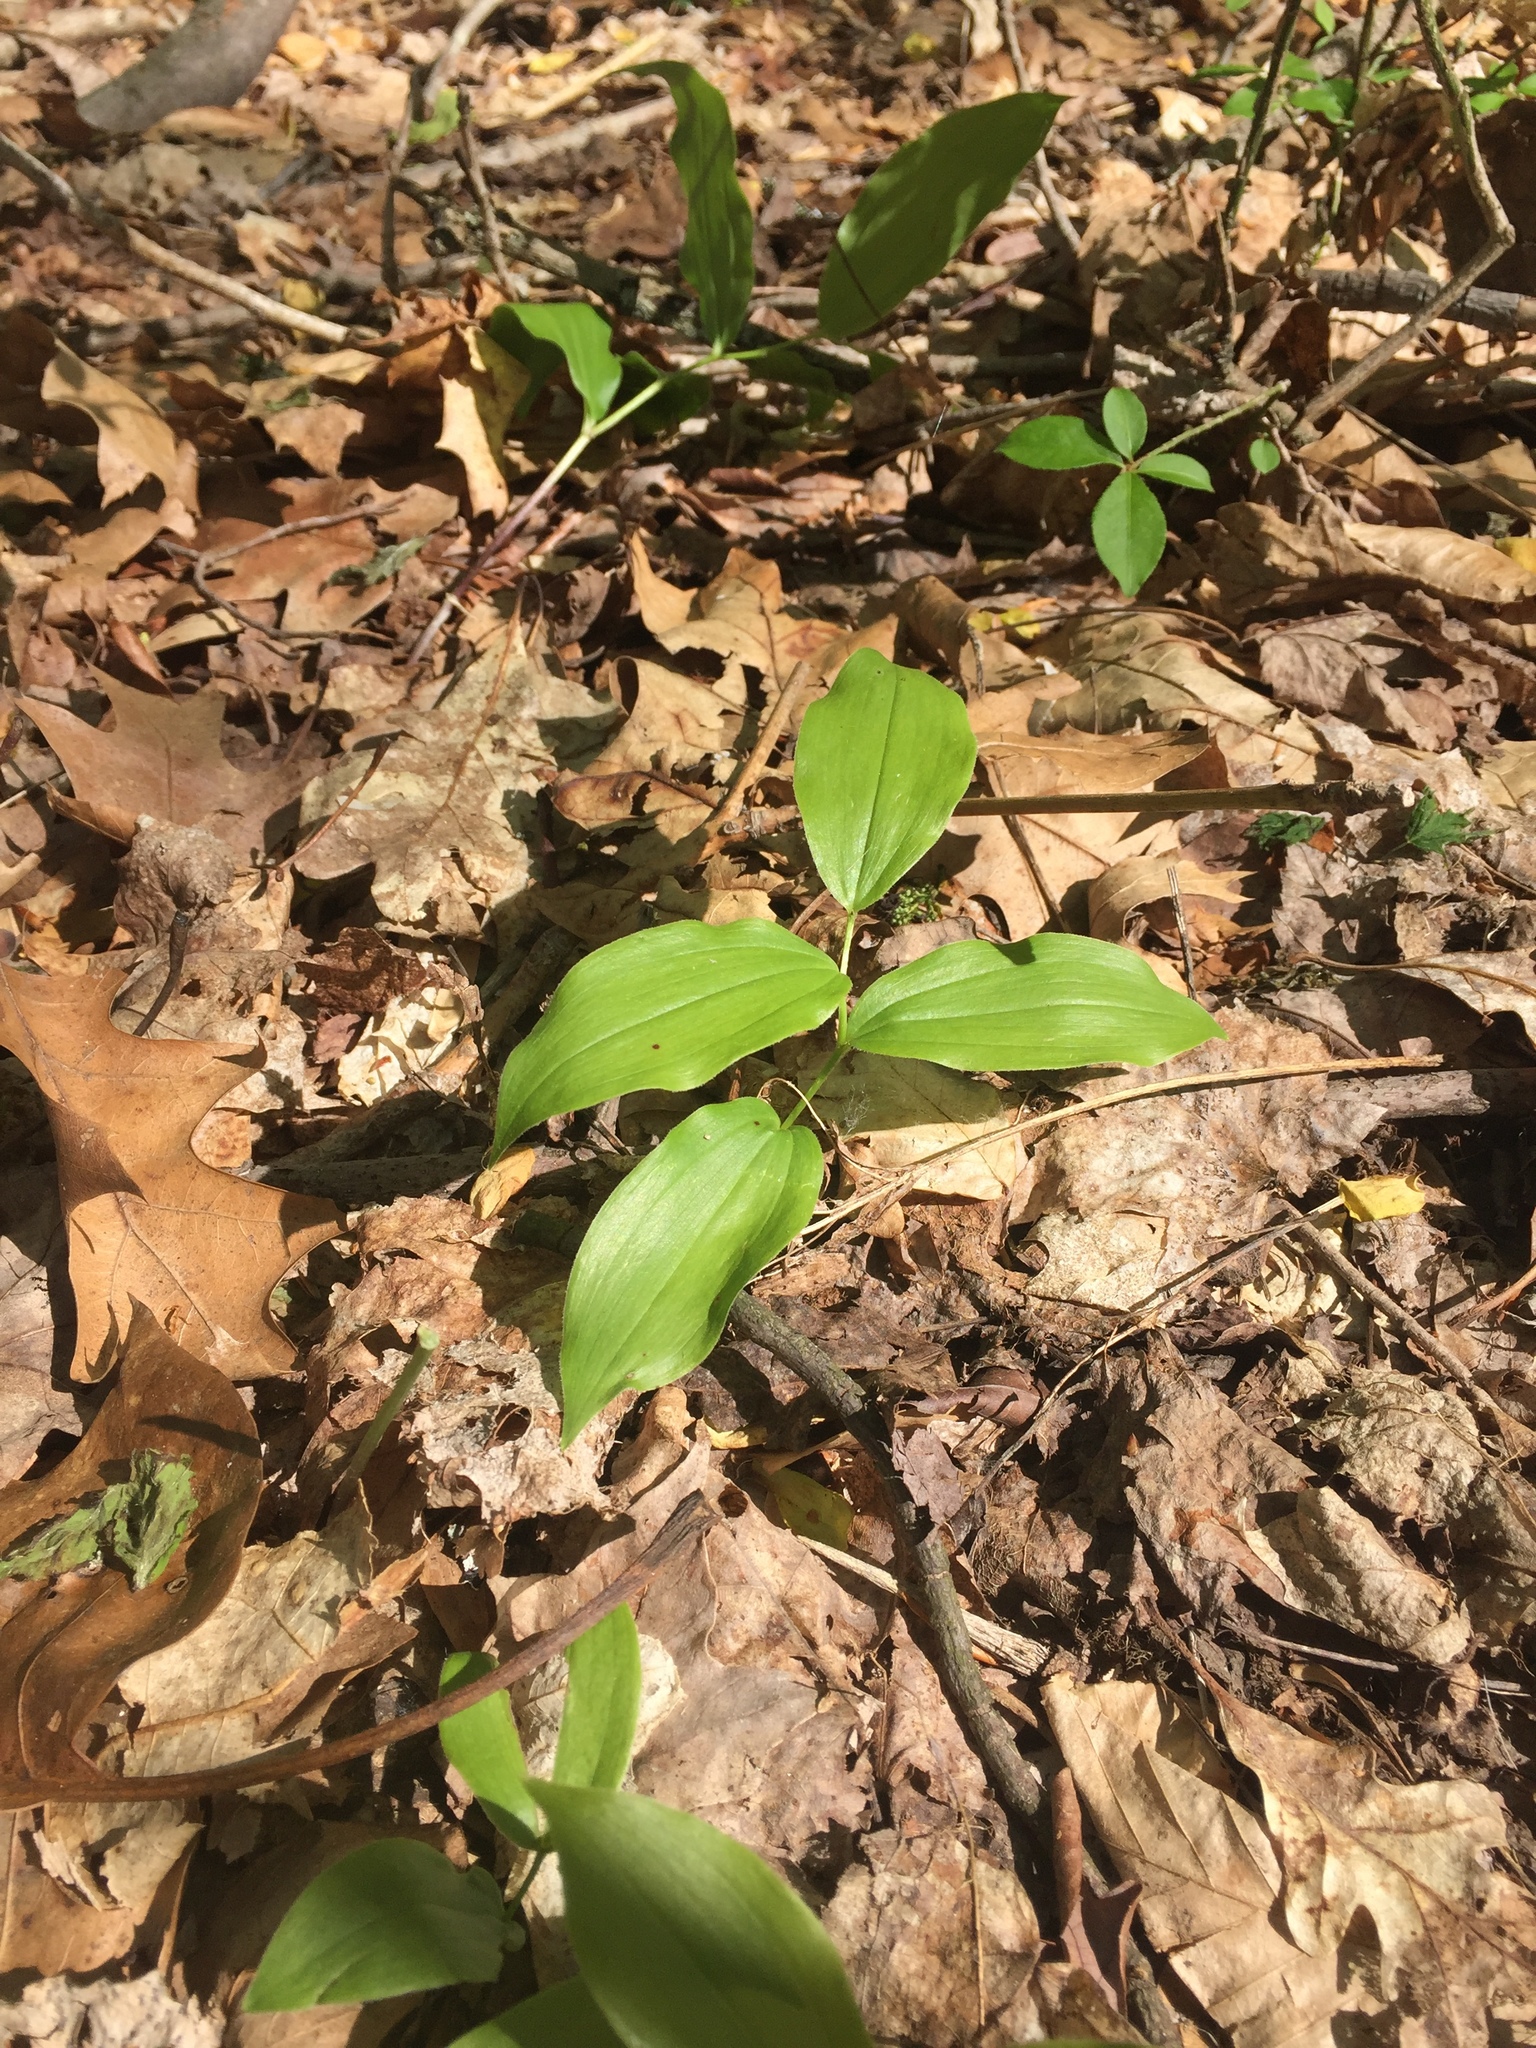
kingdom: Plantae
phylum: Tracheophyta
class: Liliopsida
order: Asparagales
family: Asparagaceae
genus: Maianthemum
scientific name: Maianthemum racemosum
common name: False spikenard
